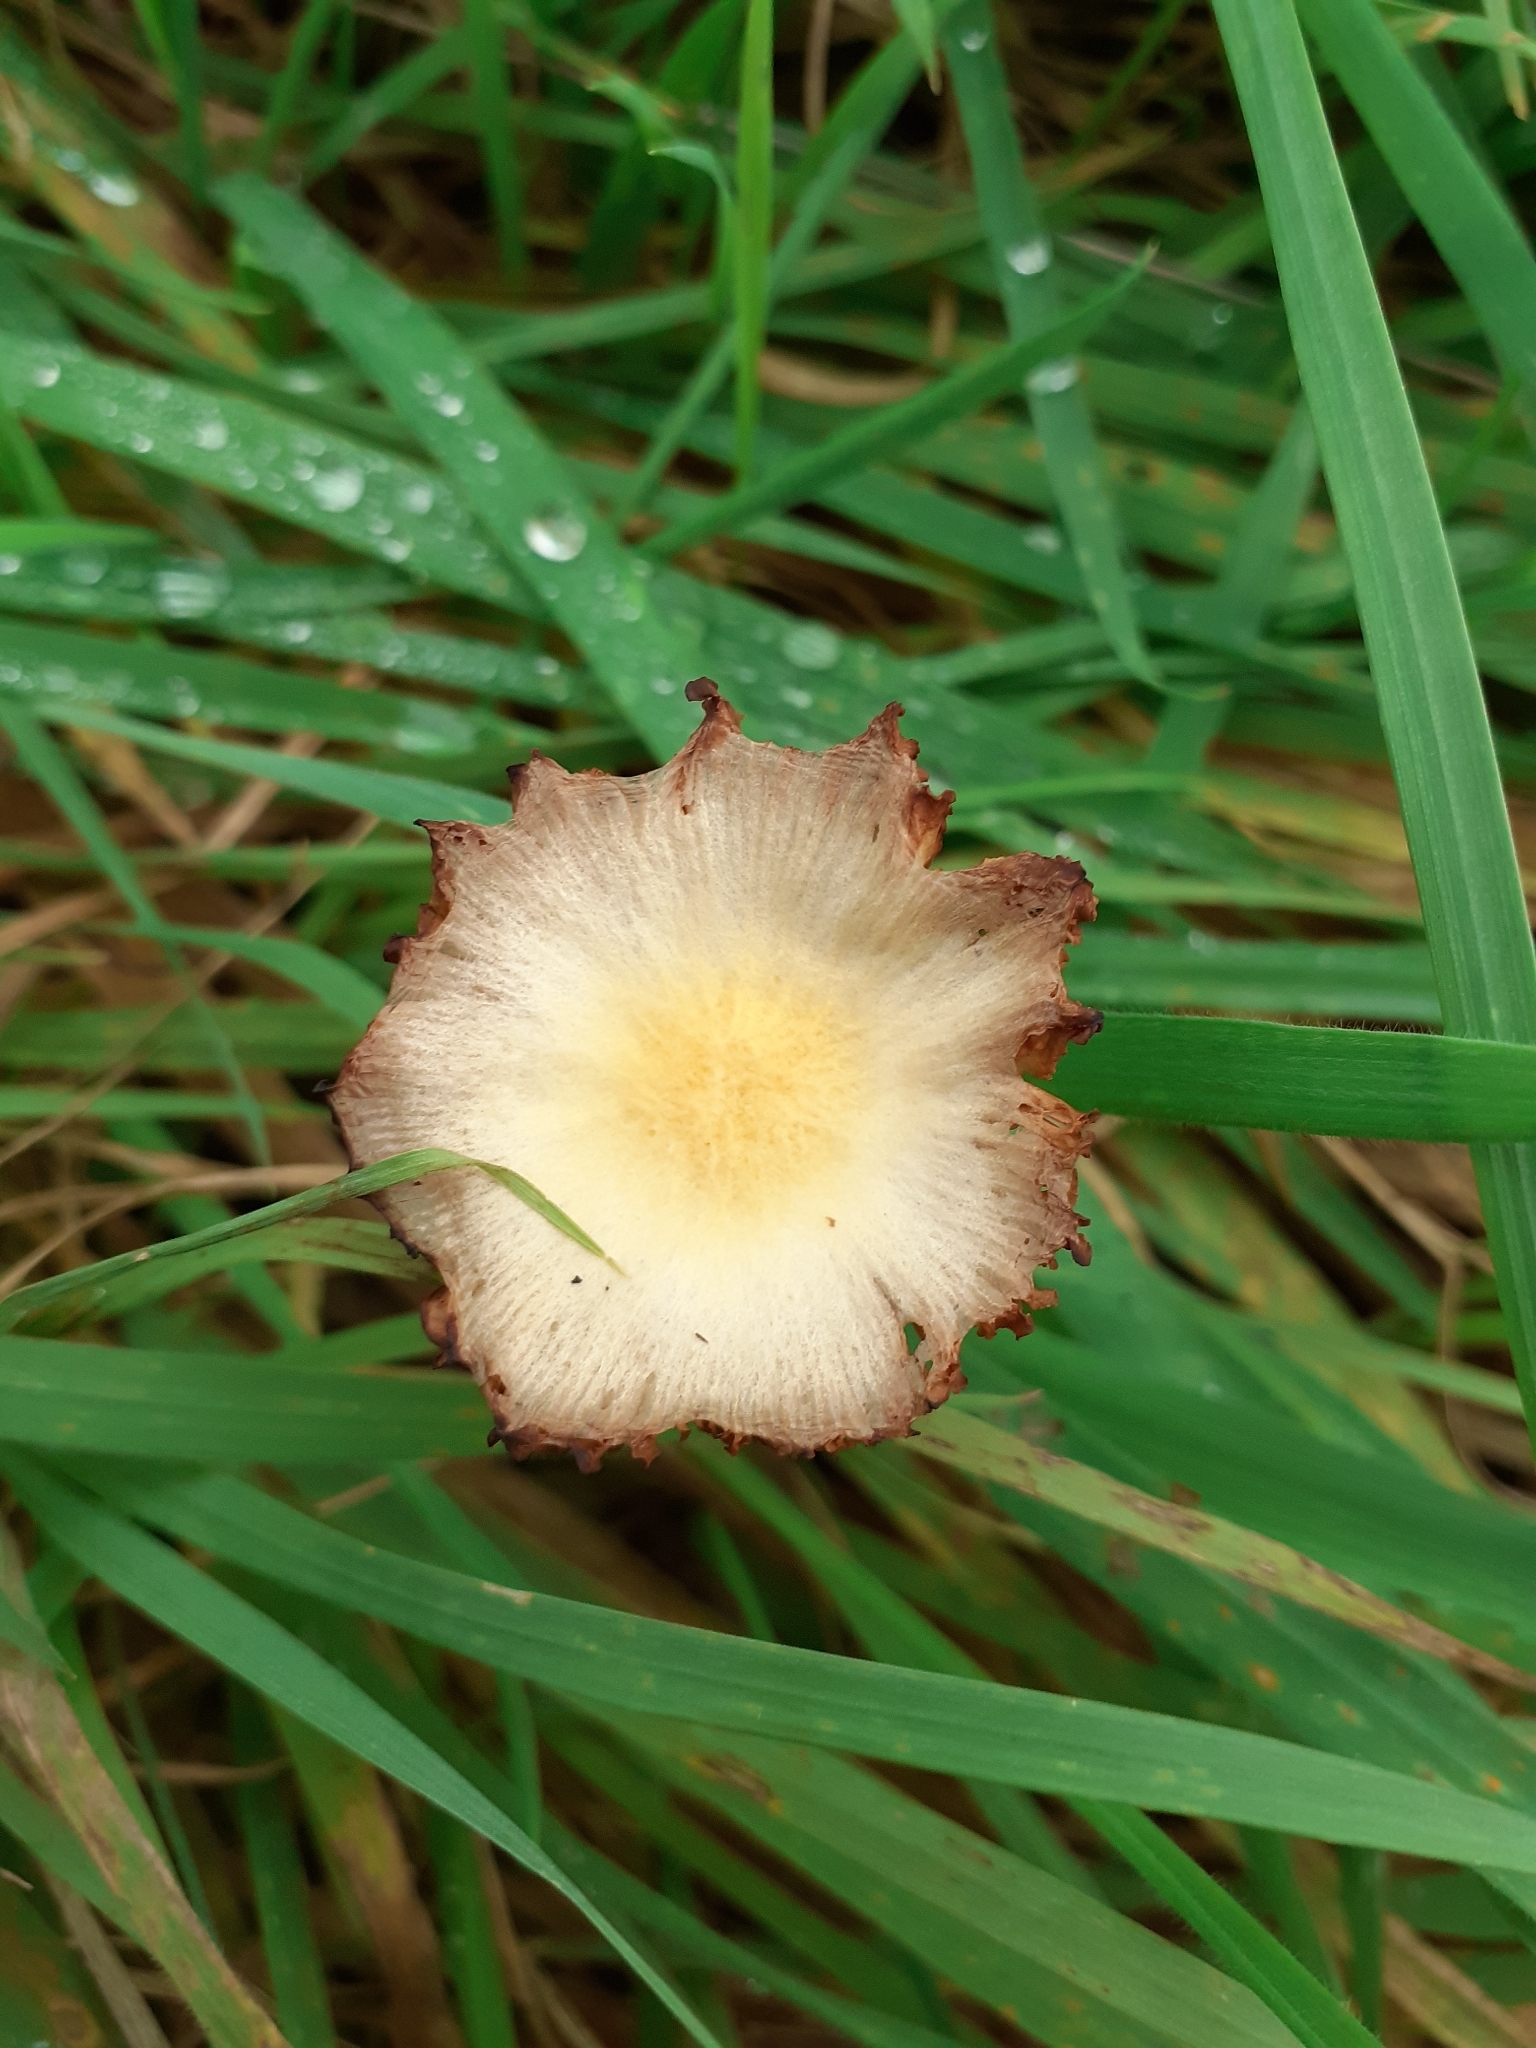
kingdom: Fungi
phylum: Basidiomycota
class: Agaricomycetes
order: Agaricales
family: Bolbitiaceae
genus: Bolbitius
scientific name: Bolbitius titubans
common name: Yellow fieldcap
